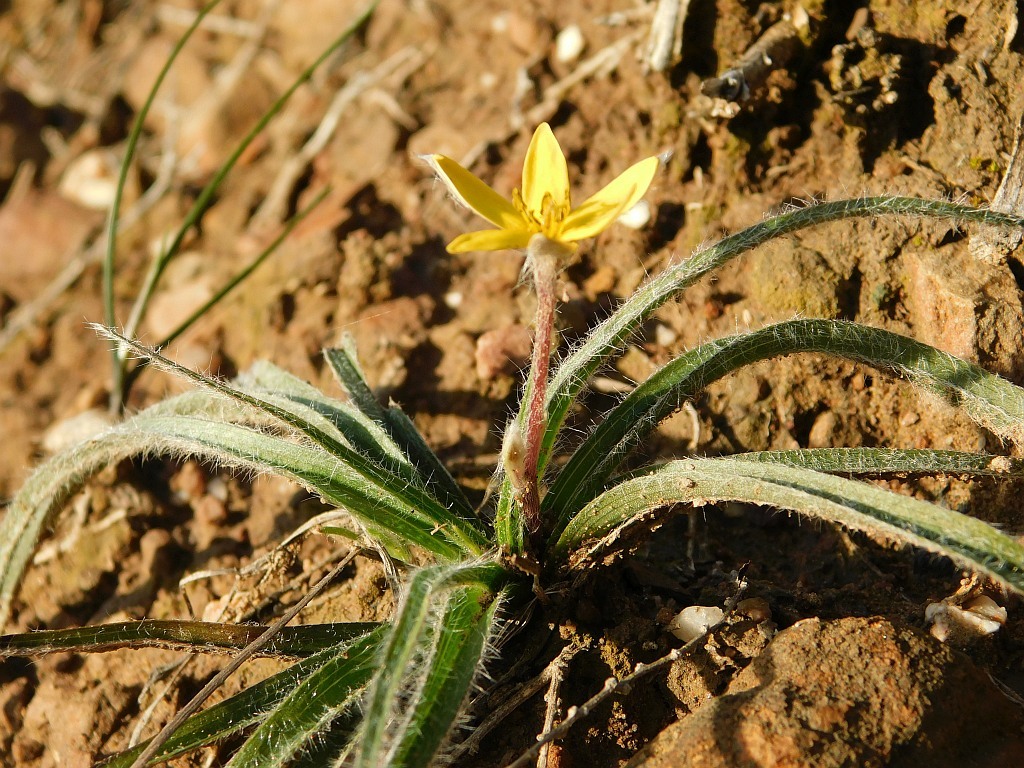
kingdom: Plantae
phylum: Tracheophyta
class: Liliopsida
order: Asparagales
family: Hypoxidaceae
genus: Hypoxis
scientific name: Hypoxis floccosa
